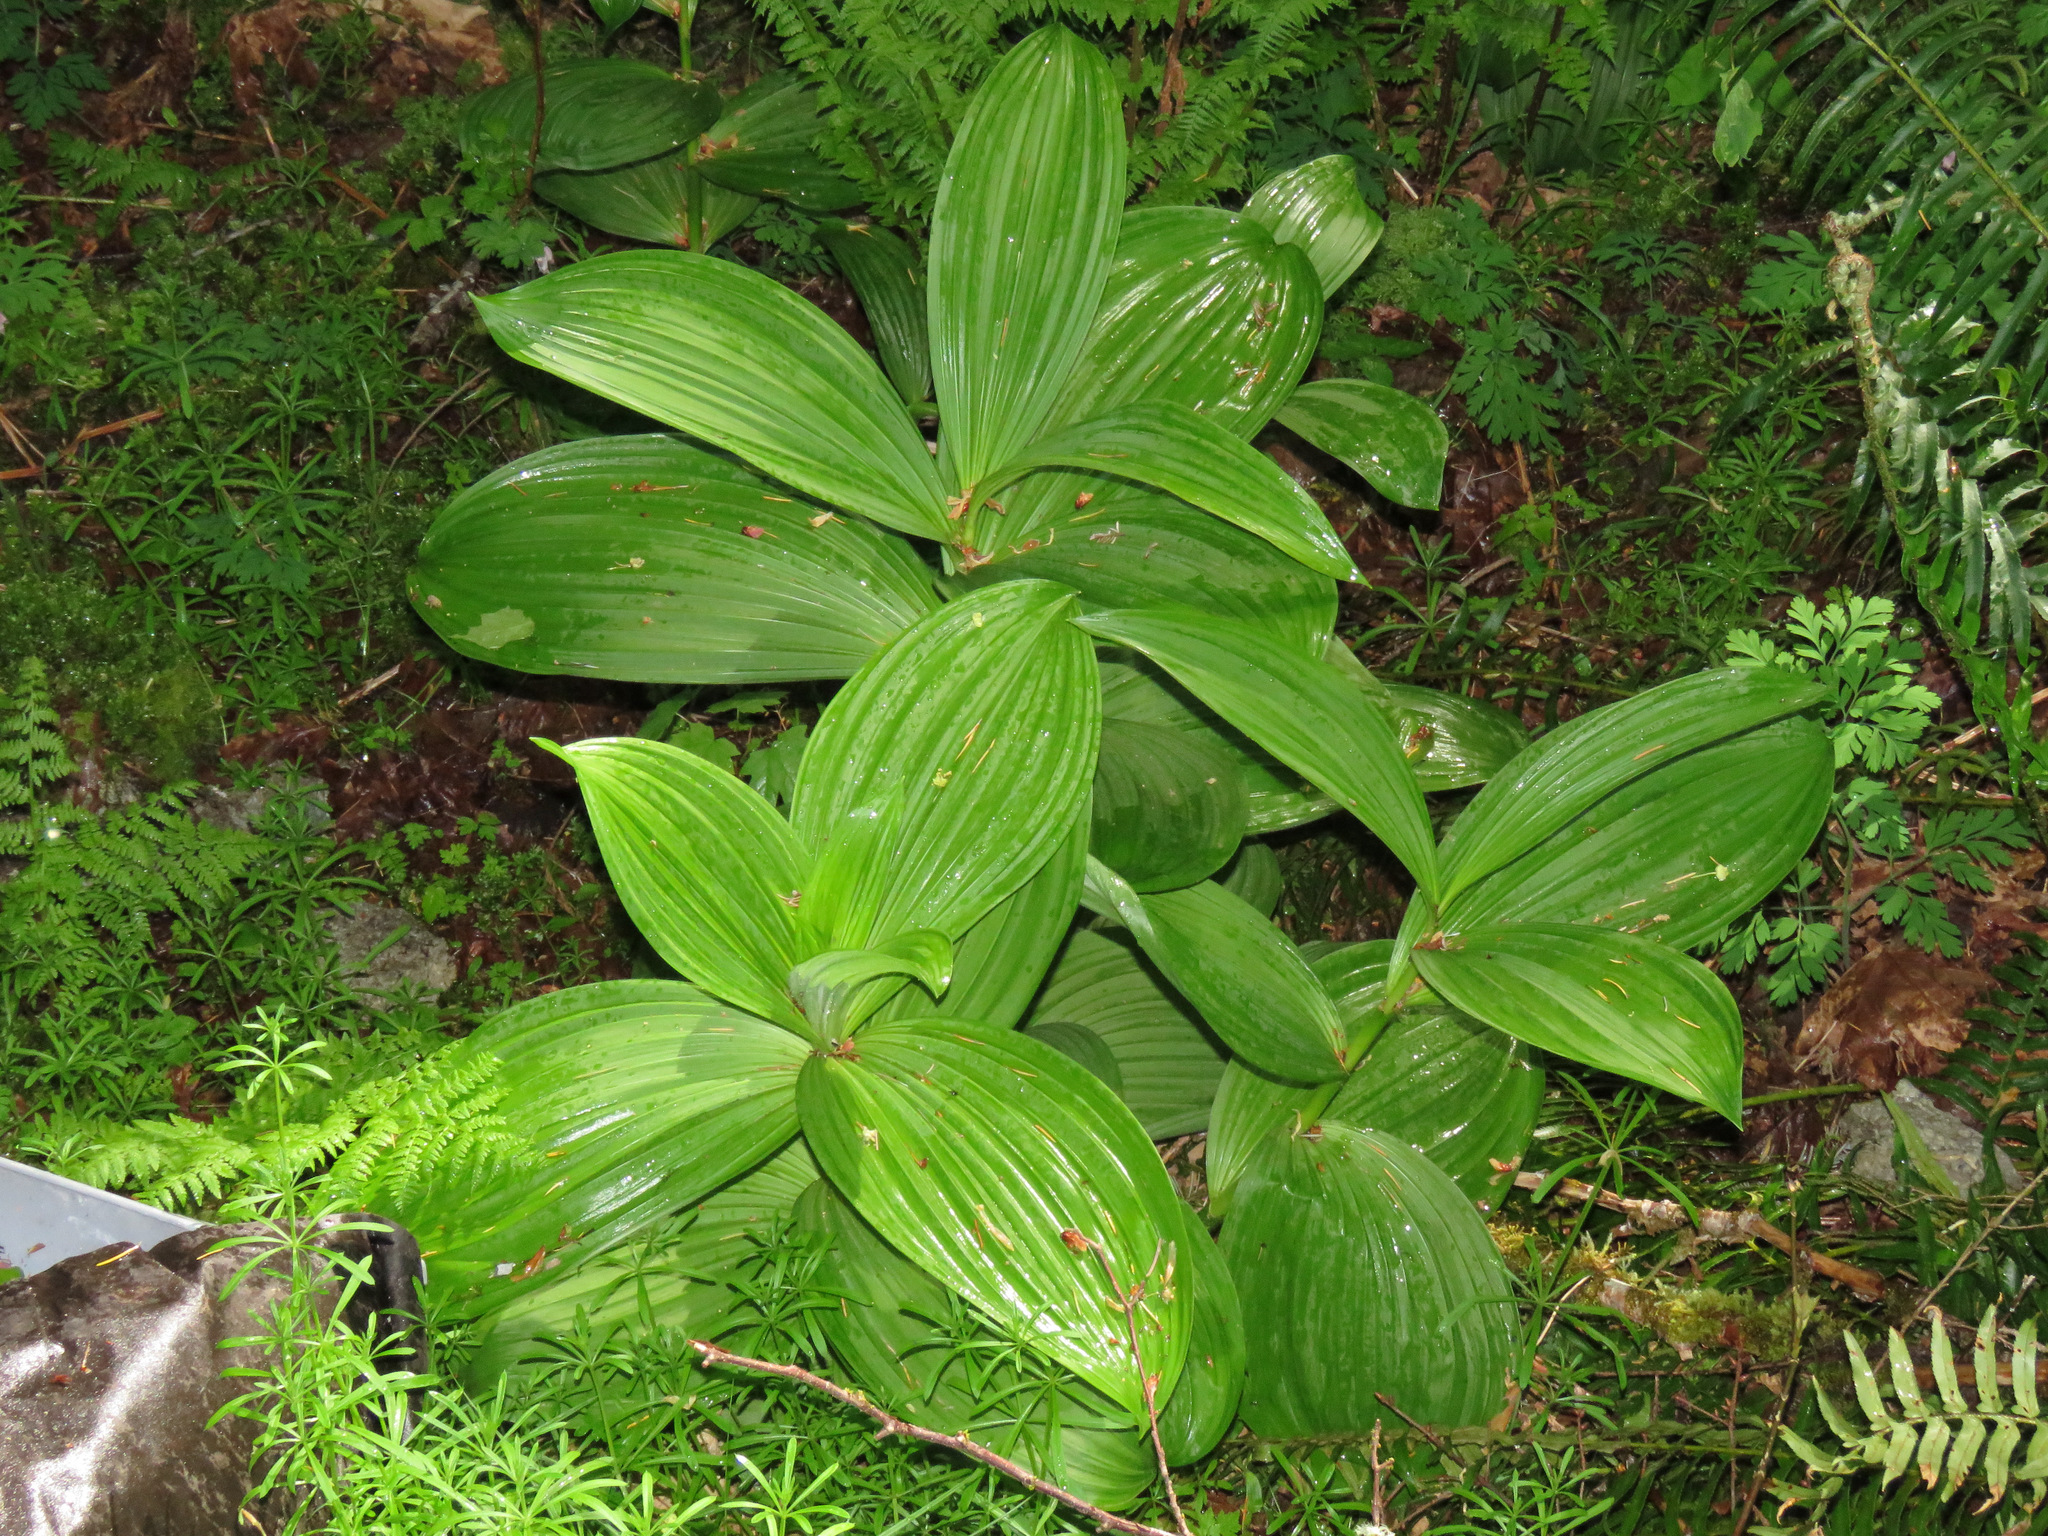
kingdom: Plantae
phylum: Tracheophyta
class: Liliopsida
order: Liliales
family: Melanthiaceae
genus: Veratrum
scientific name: Veratrum viride
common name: American false hellebore
